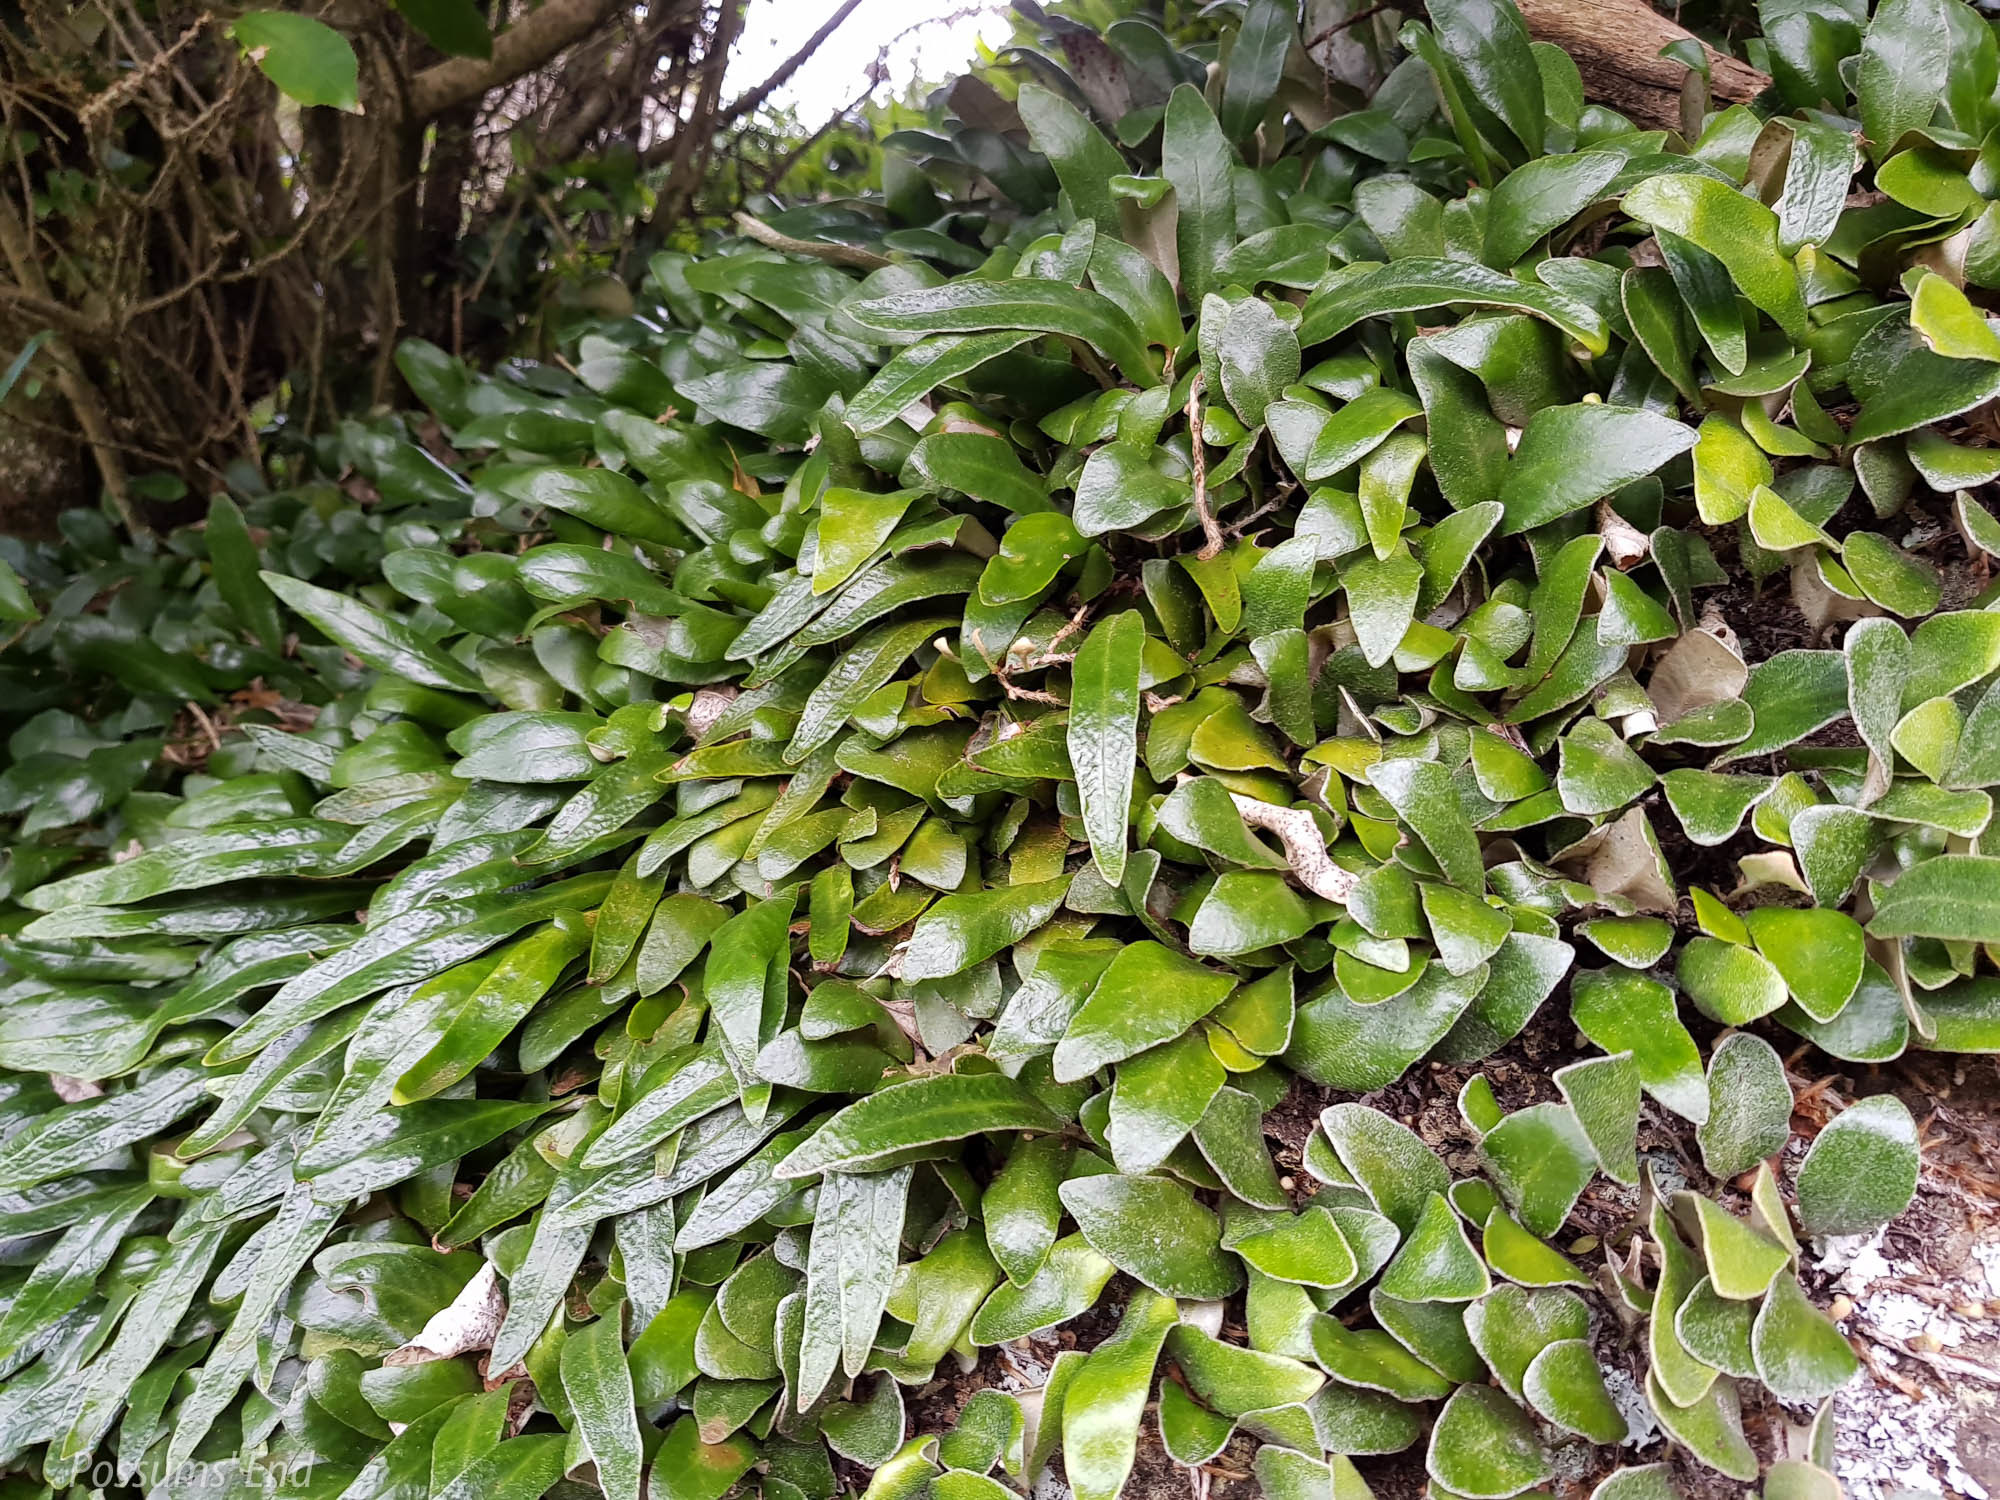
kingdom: Plantae
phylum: Tracheophyta
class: Polypodiopsida
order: Polypodiales
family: Polypodiaceae
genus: Pyrrosia
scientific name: Pyrrosia eleagnifolia
